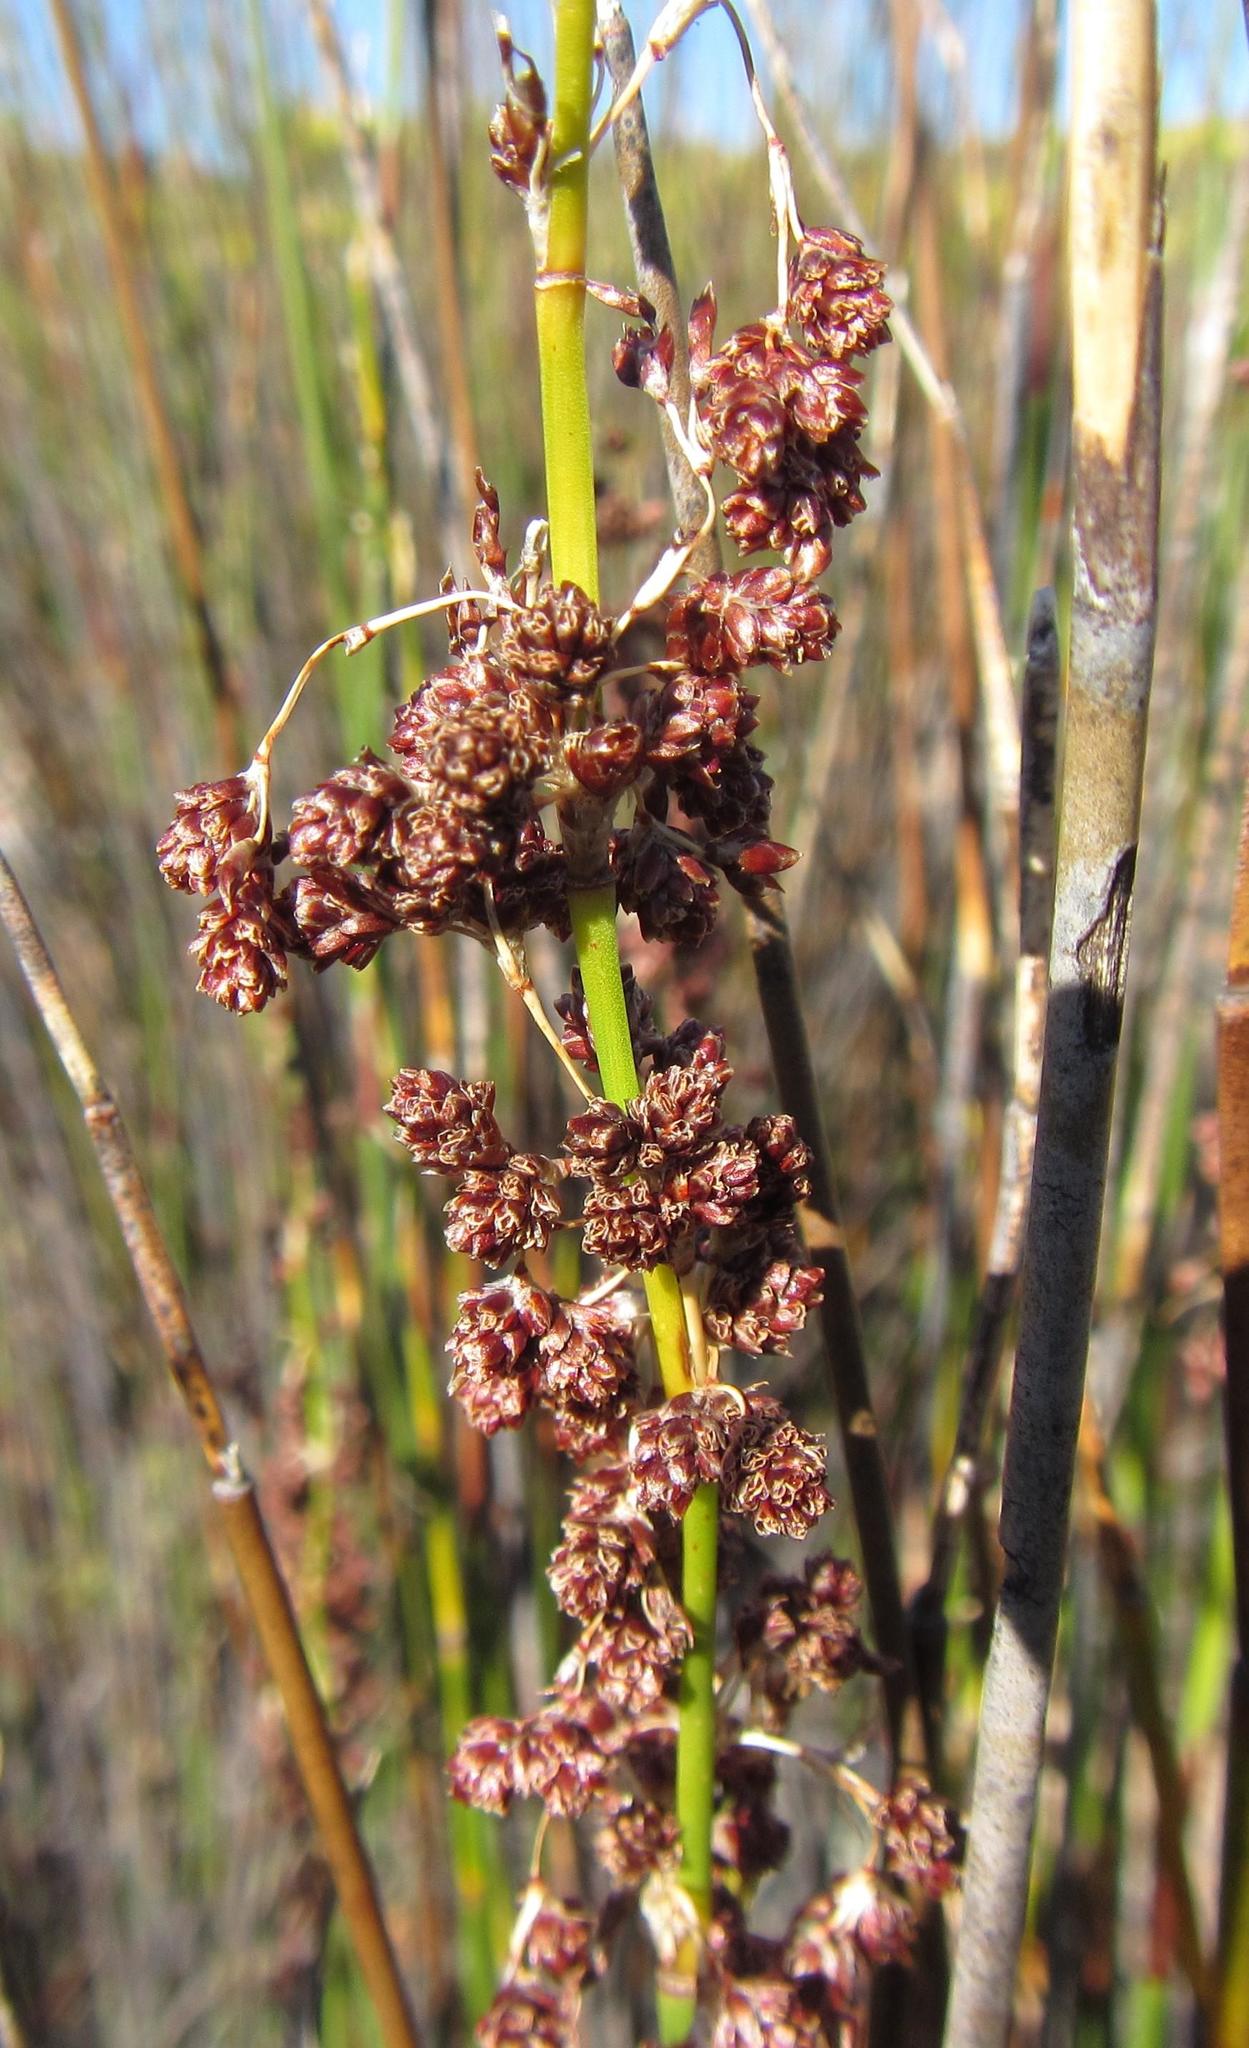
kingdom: Plantae
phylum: Tracheophyta
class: Liliopsida
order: Poales
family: Restionaceae
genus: Cannomois
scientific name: Cannomois parviflora
